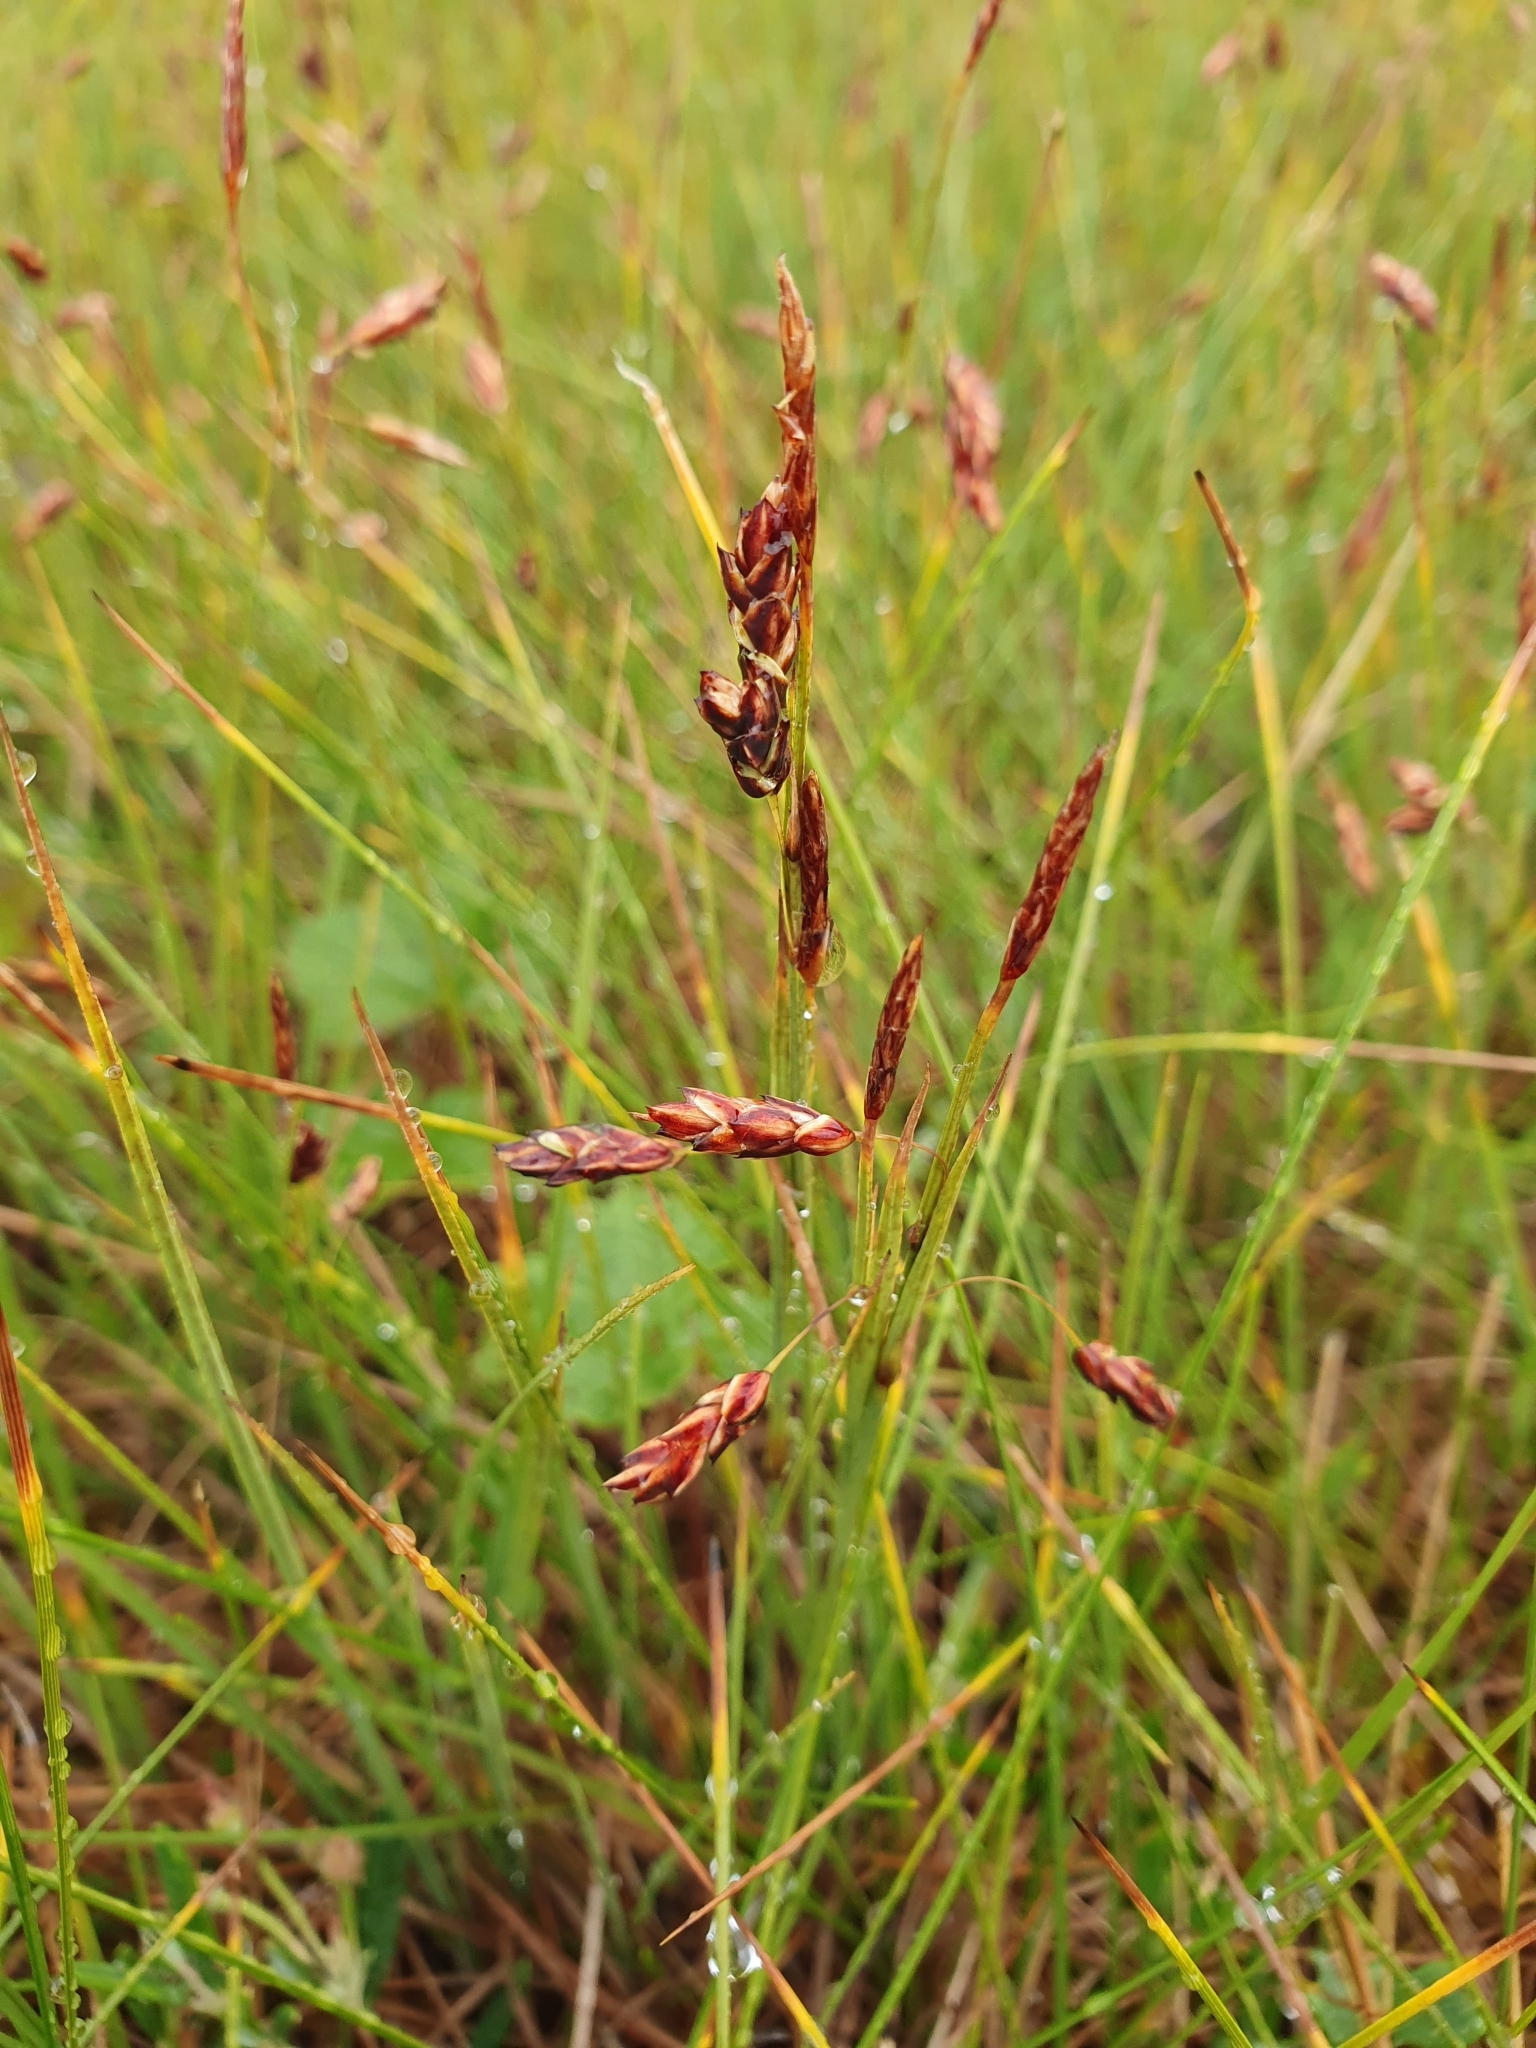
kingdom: Plantae
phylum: Tracheophyta
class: Liliopsida
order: Poales
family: Cyperaceae
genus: Carex
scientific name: Carex rariflora
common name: Loose-flowered alpine sedge
